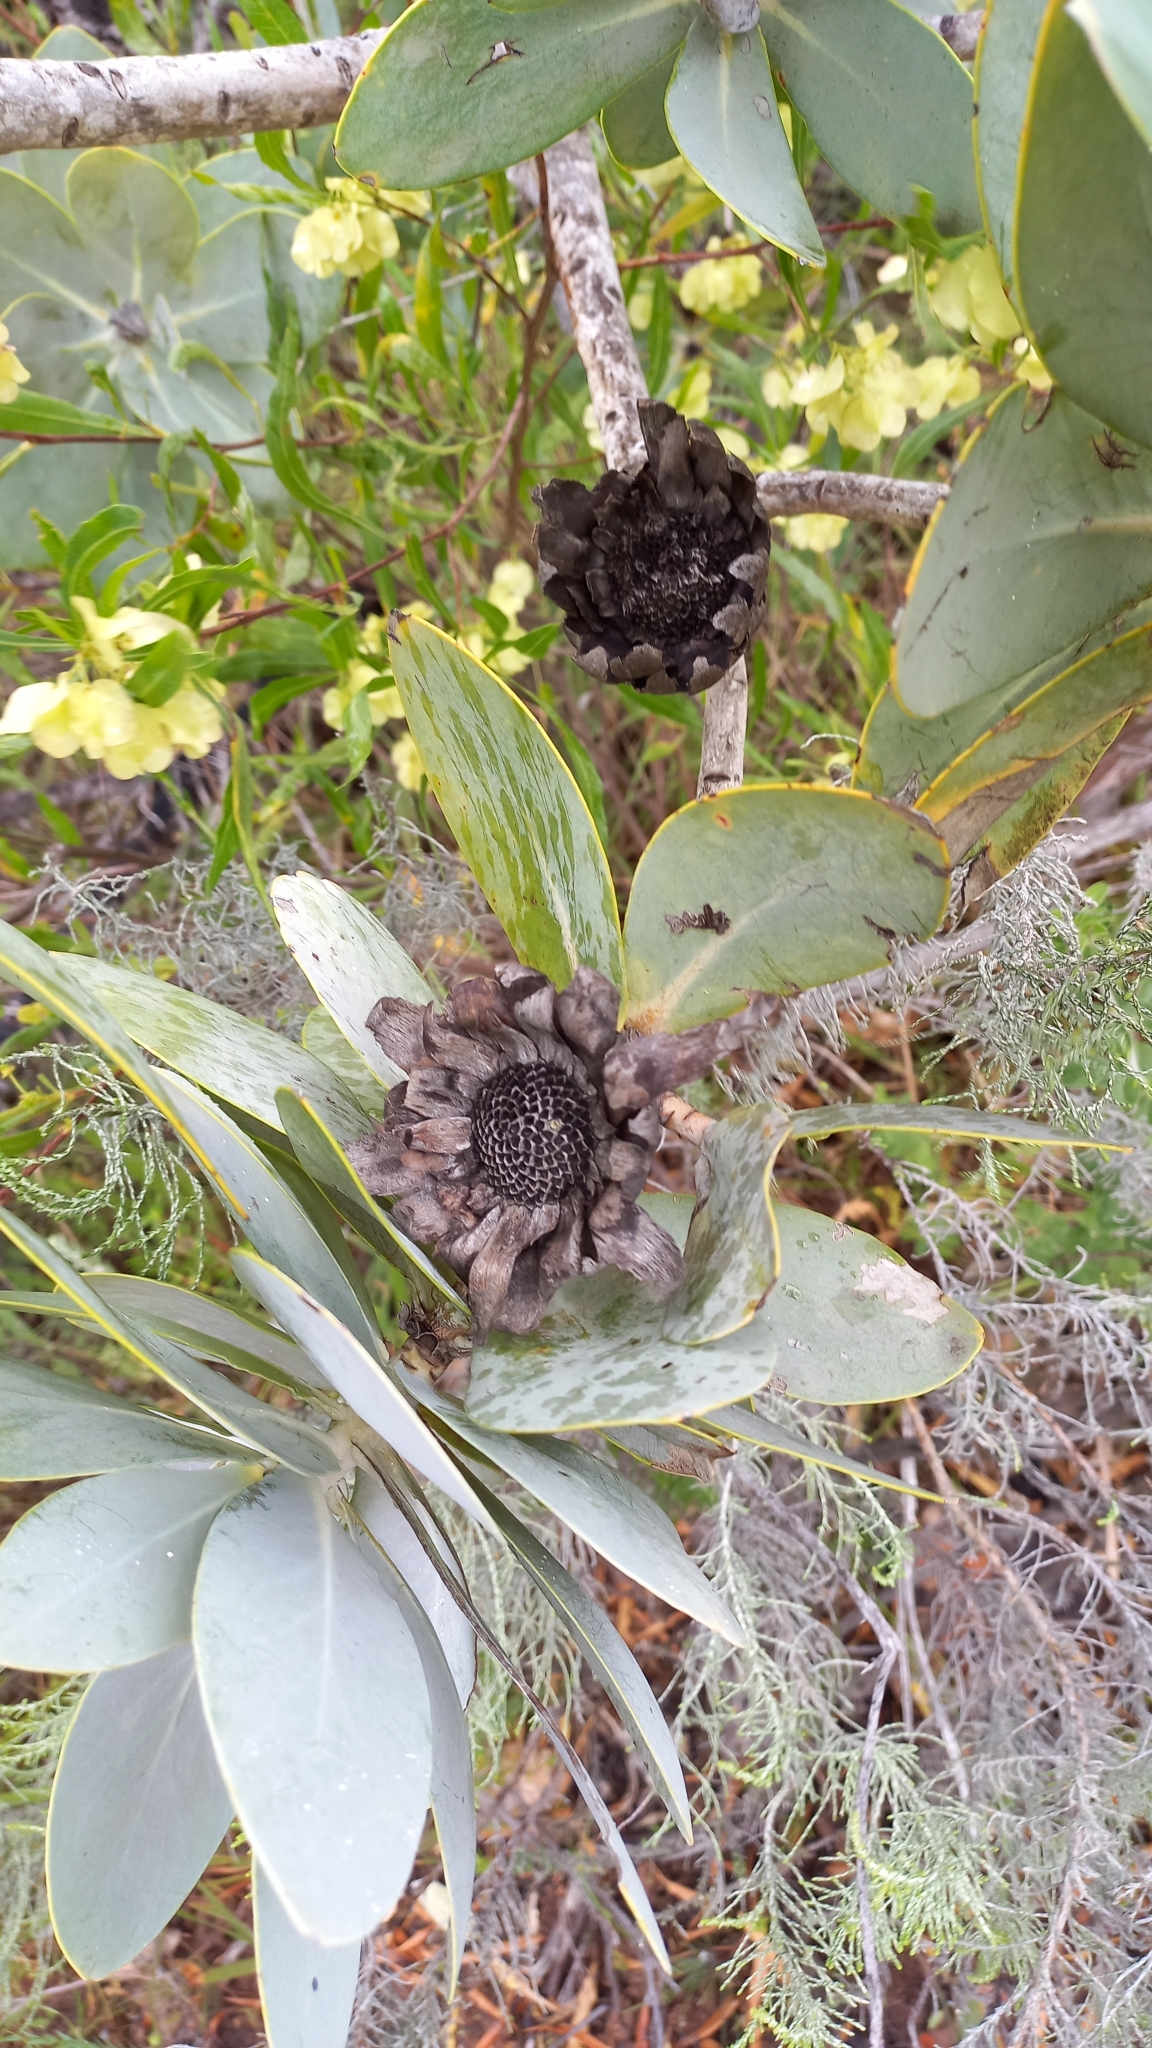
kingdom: Plantae
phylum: Tracheophyta
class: Magnoliopsida
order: Proteales
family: Proteaceae
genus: Protea
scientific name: Protea nitida
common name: Tree protea
